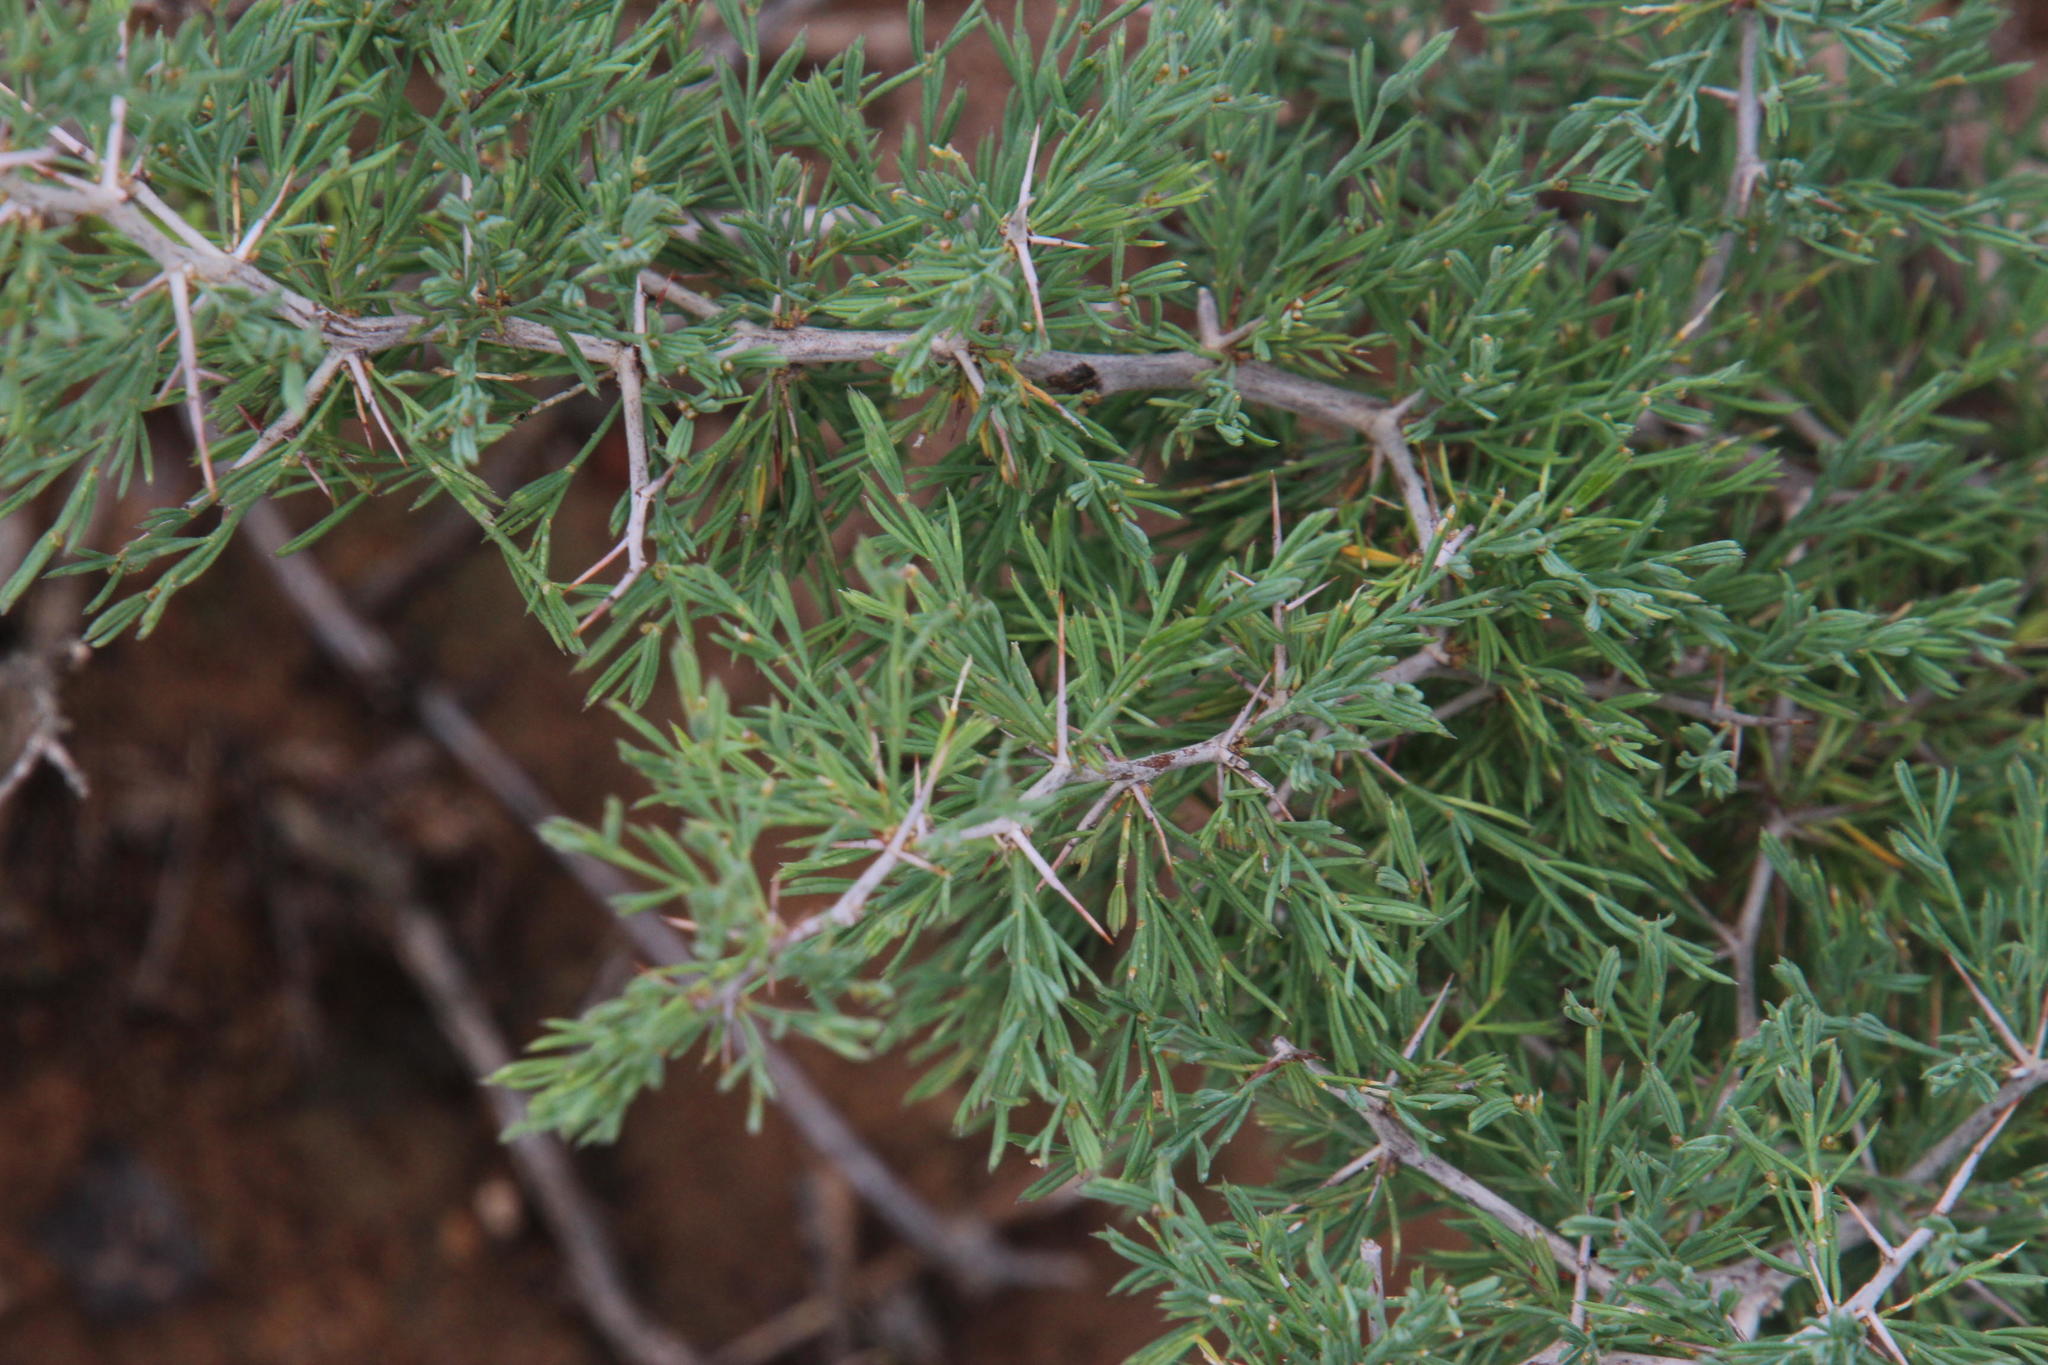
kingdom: Plantae
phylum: Tracheophyta
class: Liliopsida
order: Asparagales
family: Asparagaceae
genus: Asparagus
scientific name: Asparagus suaveolens
